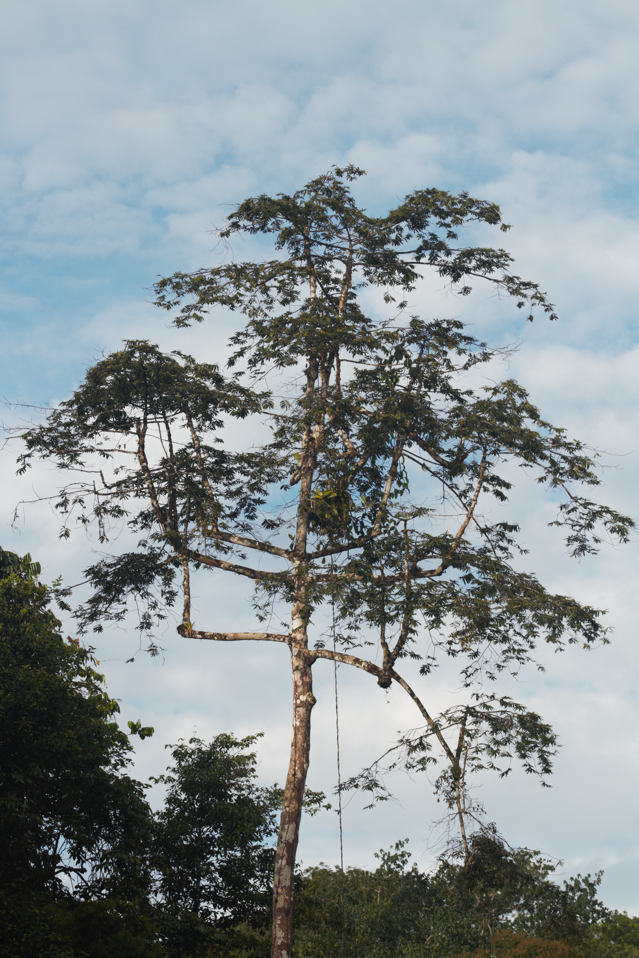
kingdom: Plantae
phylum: Tracheophyta
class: Magnoliopsida
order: Magnoliales
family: Myristicaceae
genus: Virola
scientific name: Virola surinamensis
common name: Baboonwood
